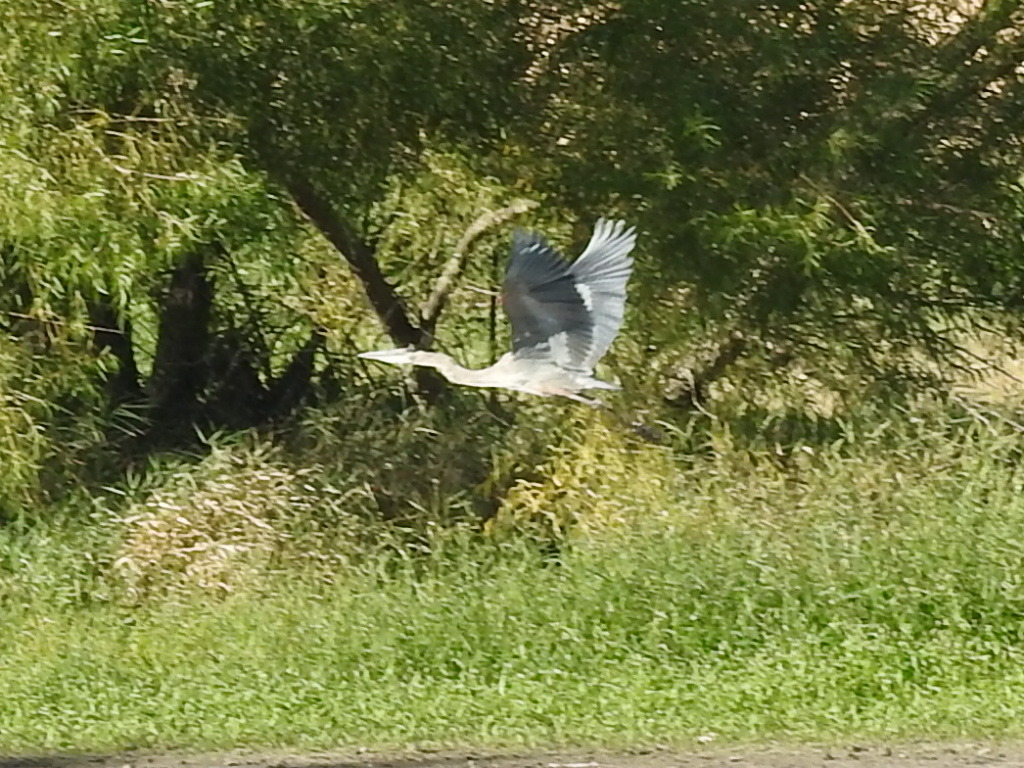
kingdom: Animalia
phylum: Chordata
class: Aves
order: Pelecaniformes
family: Ardeidae
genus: Ardea
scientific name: Ardea herodias
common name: Great blue heron
